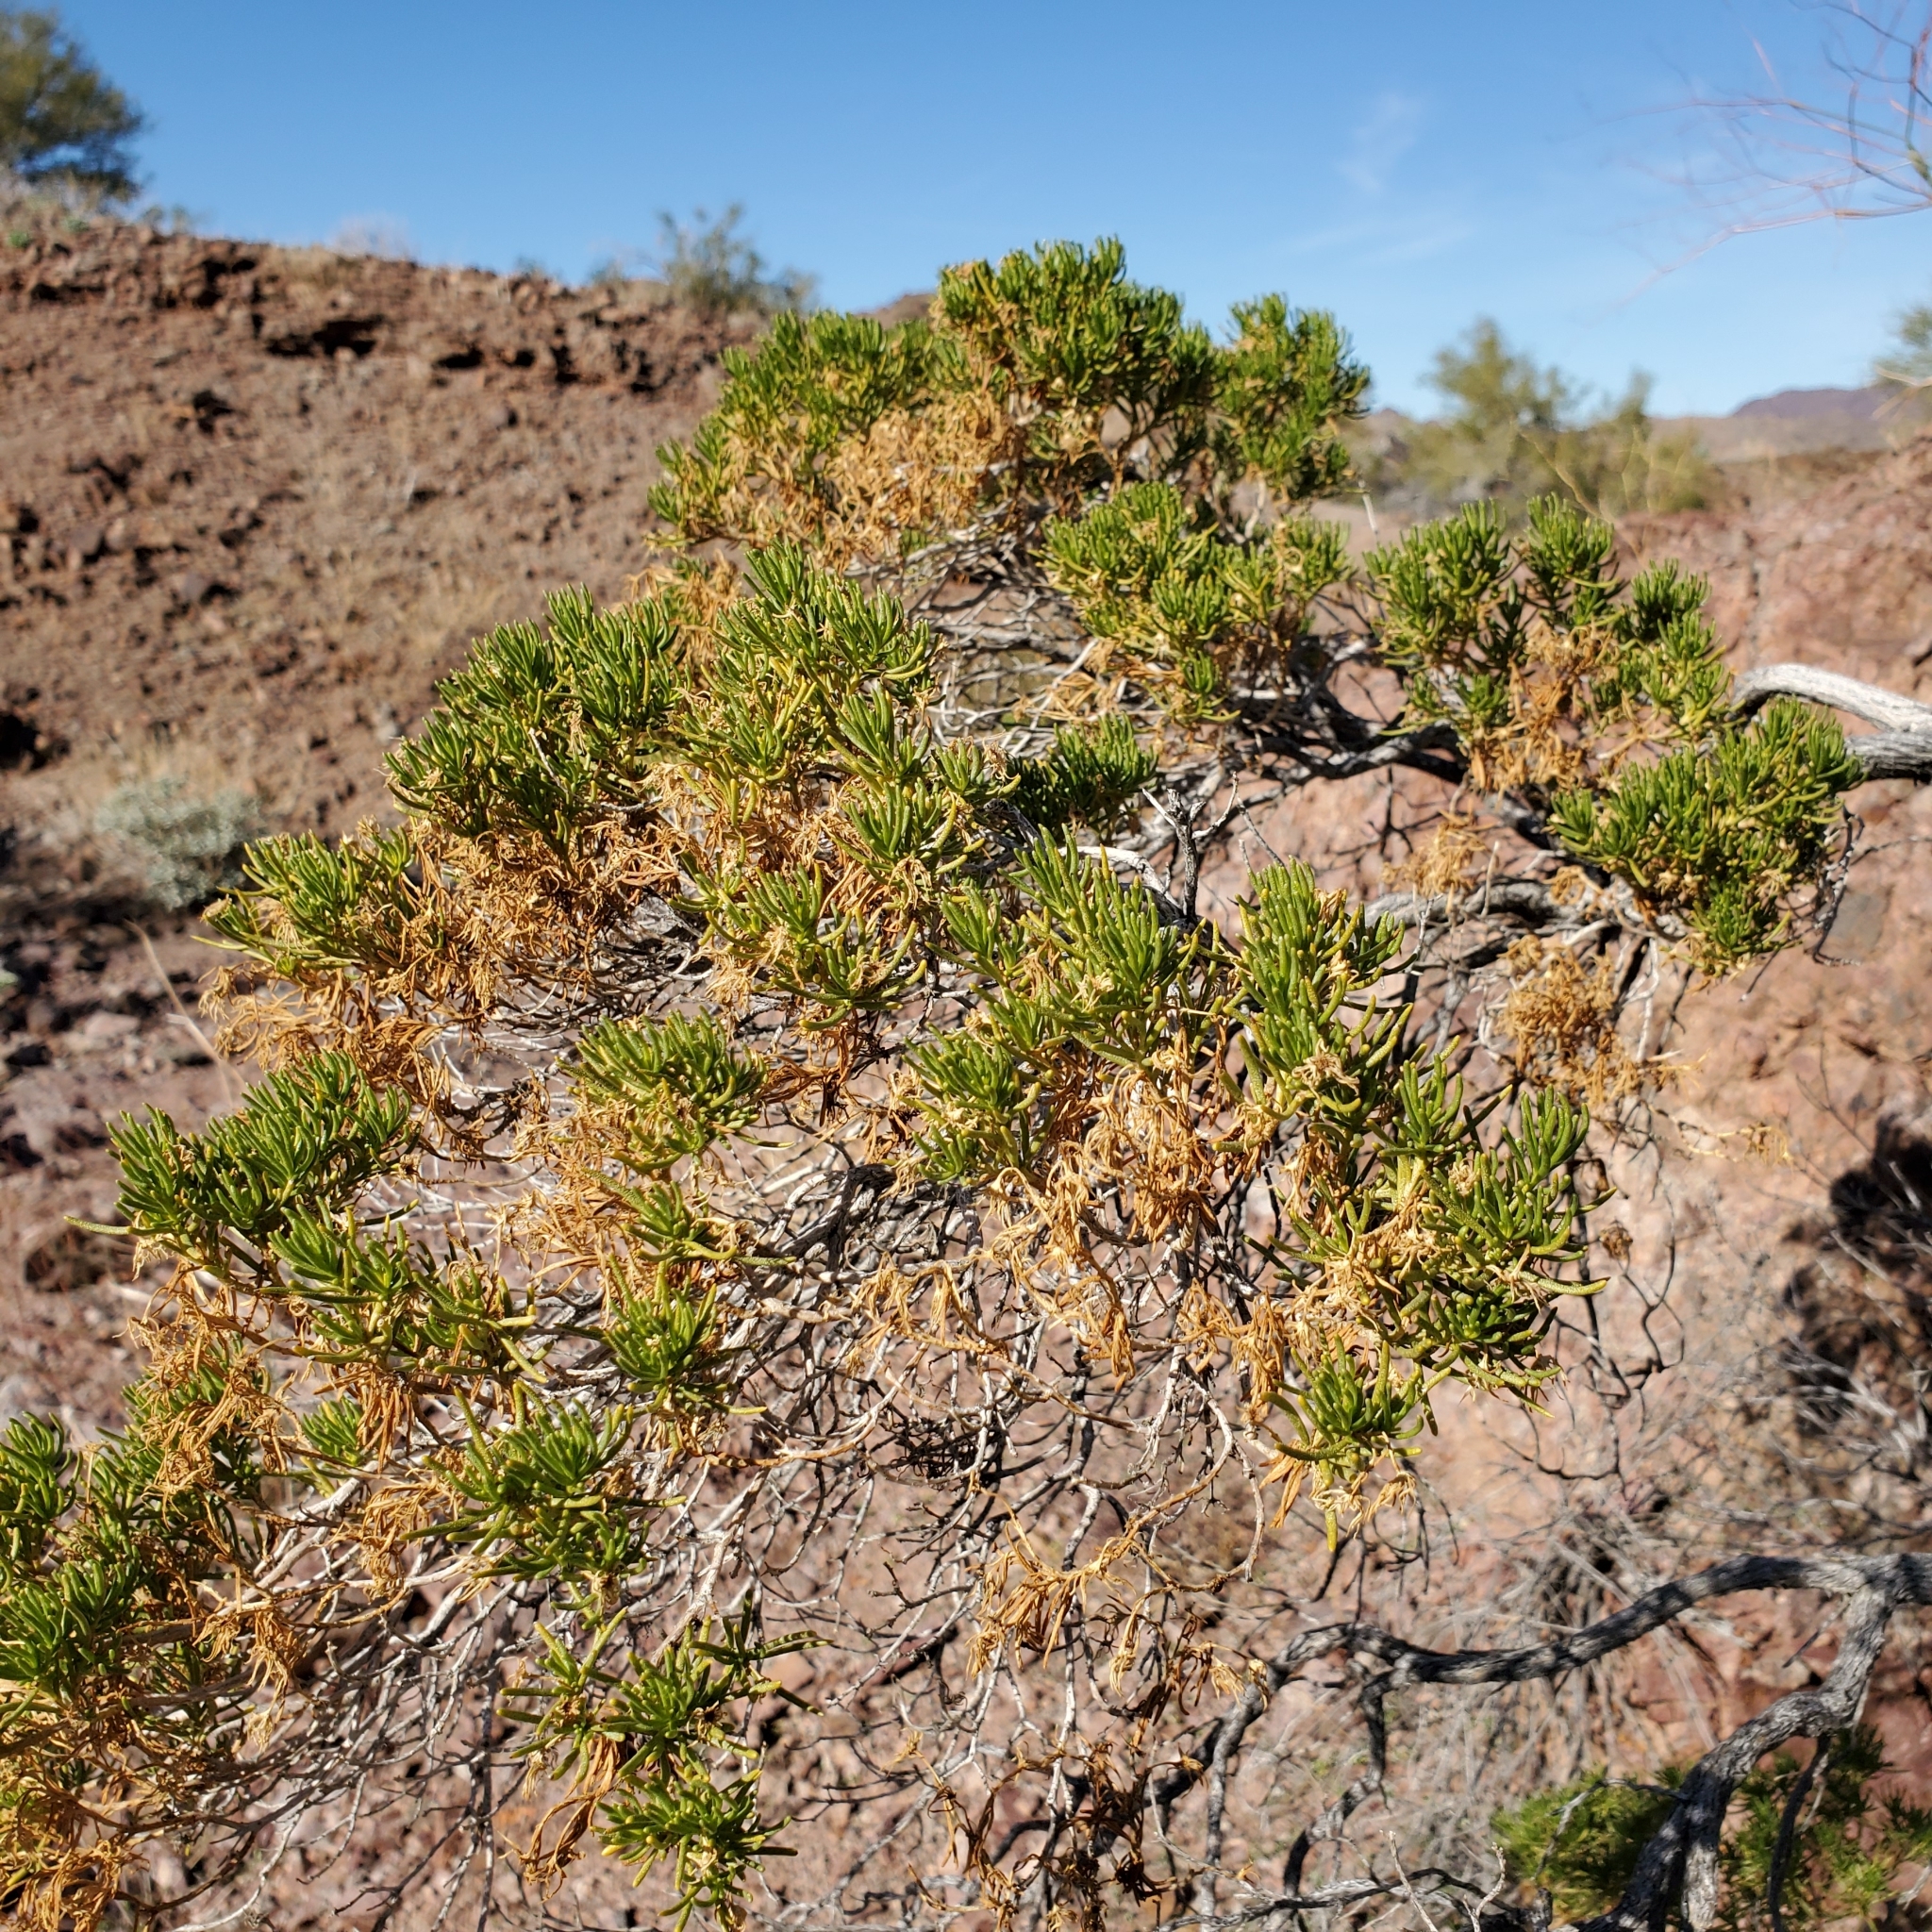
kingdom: Plantae
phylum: Tracheophyta
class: Magnoliopsida
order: Asterales
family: Asteraceae
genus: Peucephyllum
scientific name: Peucephyllum schottii
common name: Pygmy-cedar
